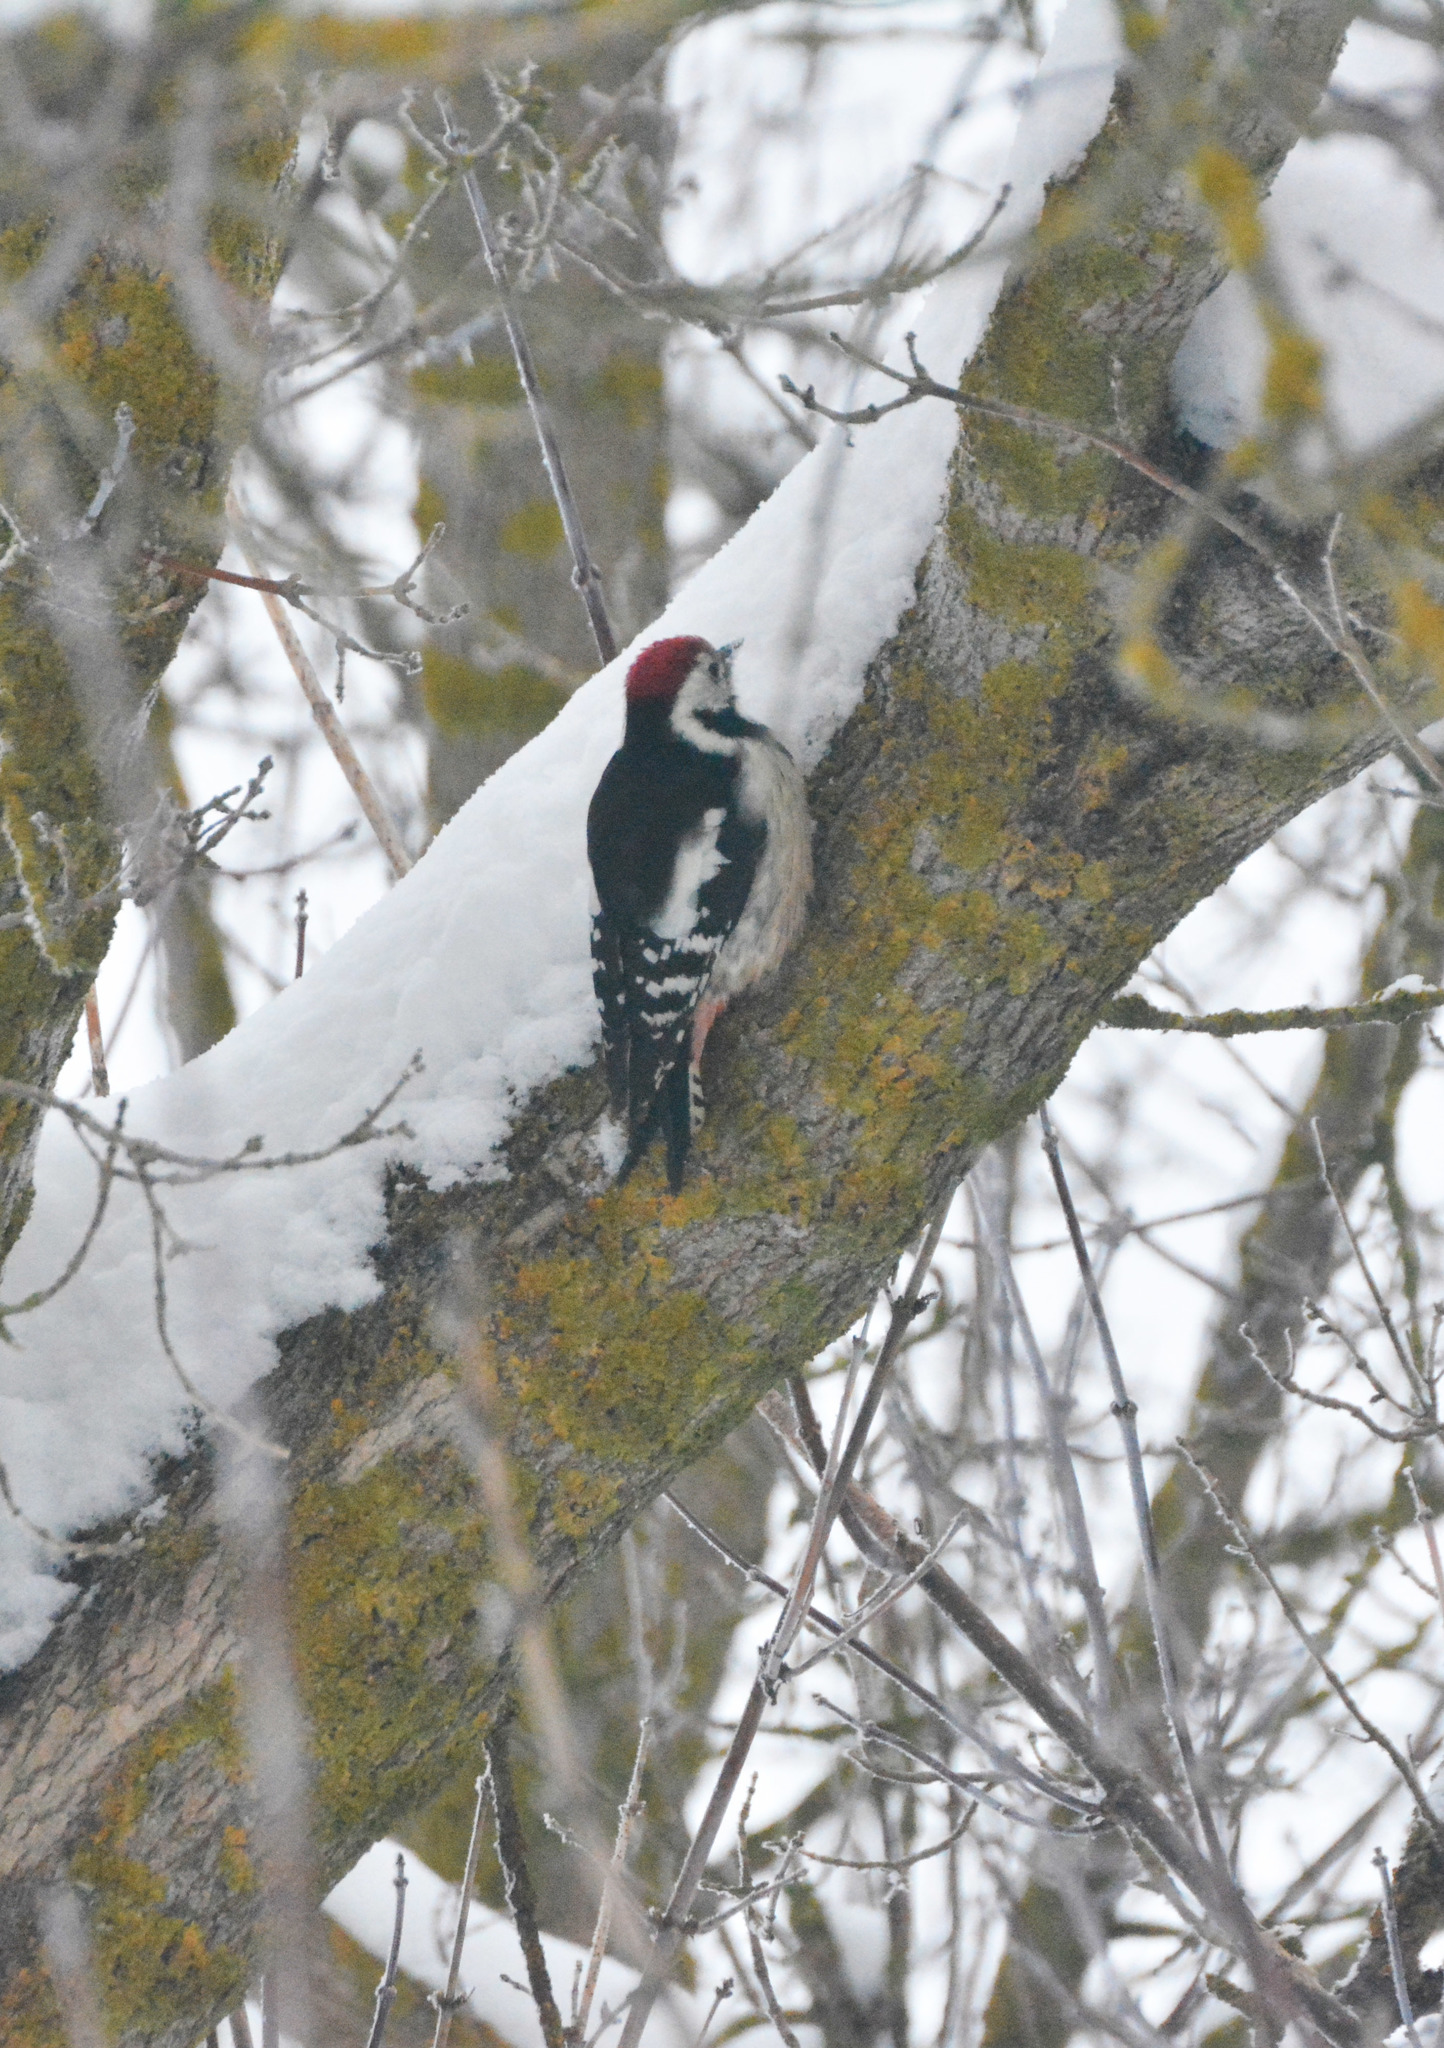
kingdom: Animalia
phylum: Chordata
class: Aves
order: Piciformes
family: Picidae
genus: Dendrocoptes
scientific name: Dendrocoptes medius
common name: Middle spotted woodpecker
